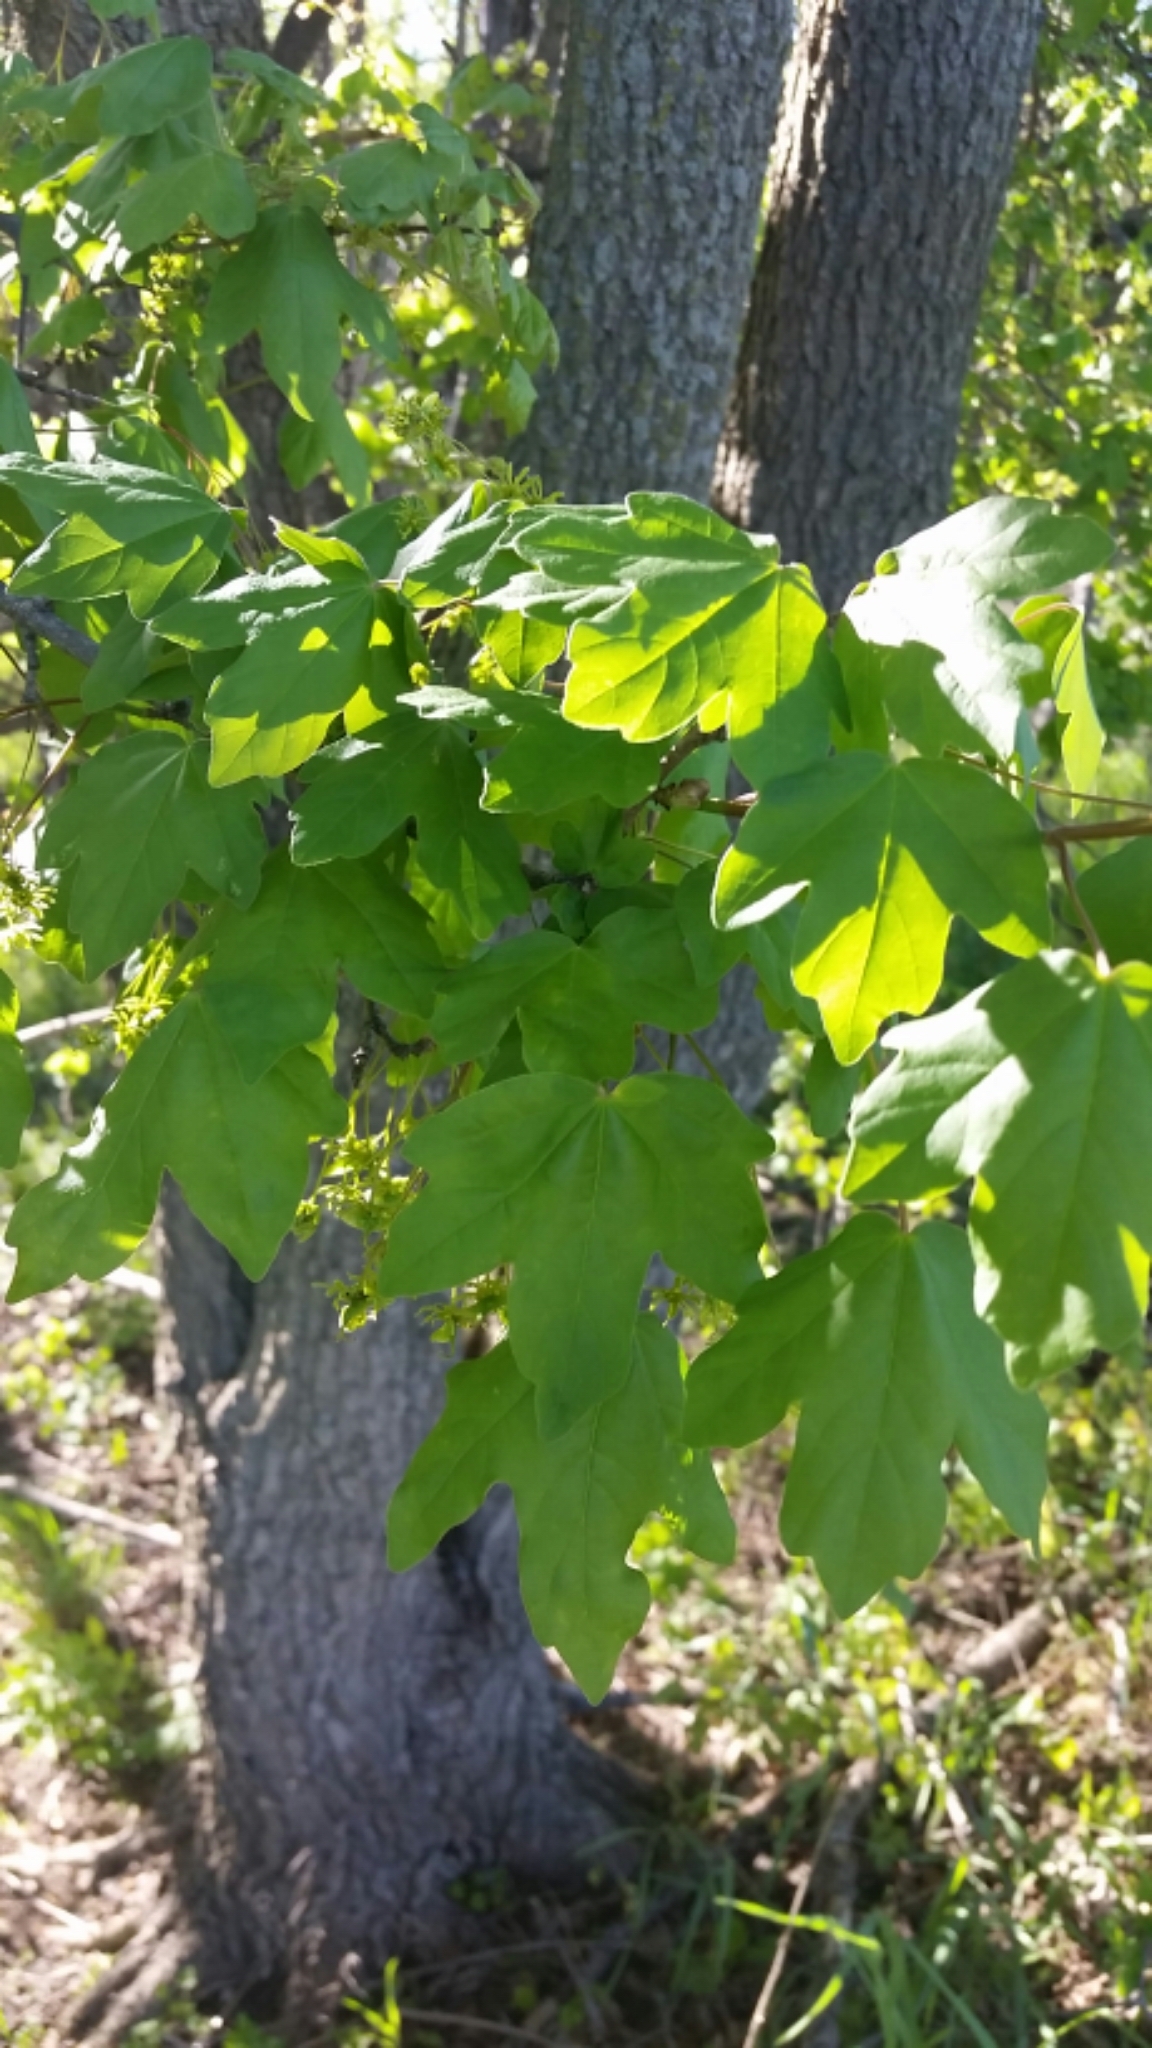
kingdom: Plantae
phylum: Tracheophyta
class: Magnoliopsida
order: Sapindales
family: Sapindaceae
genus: Acer
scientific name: Acer campestre
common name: Field maple
